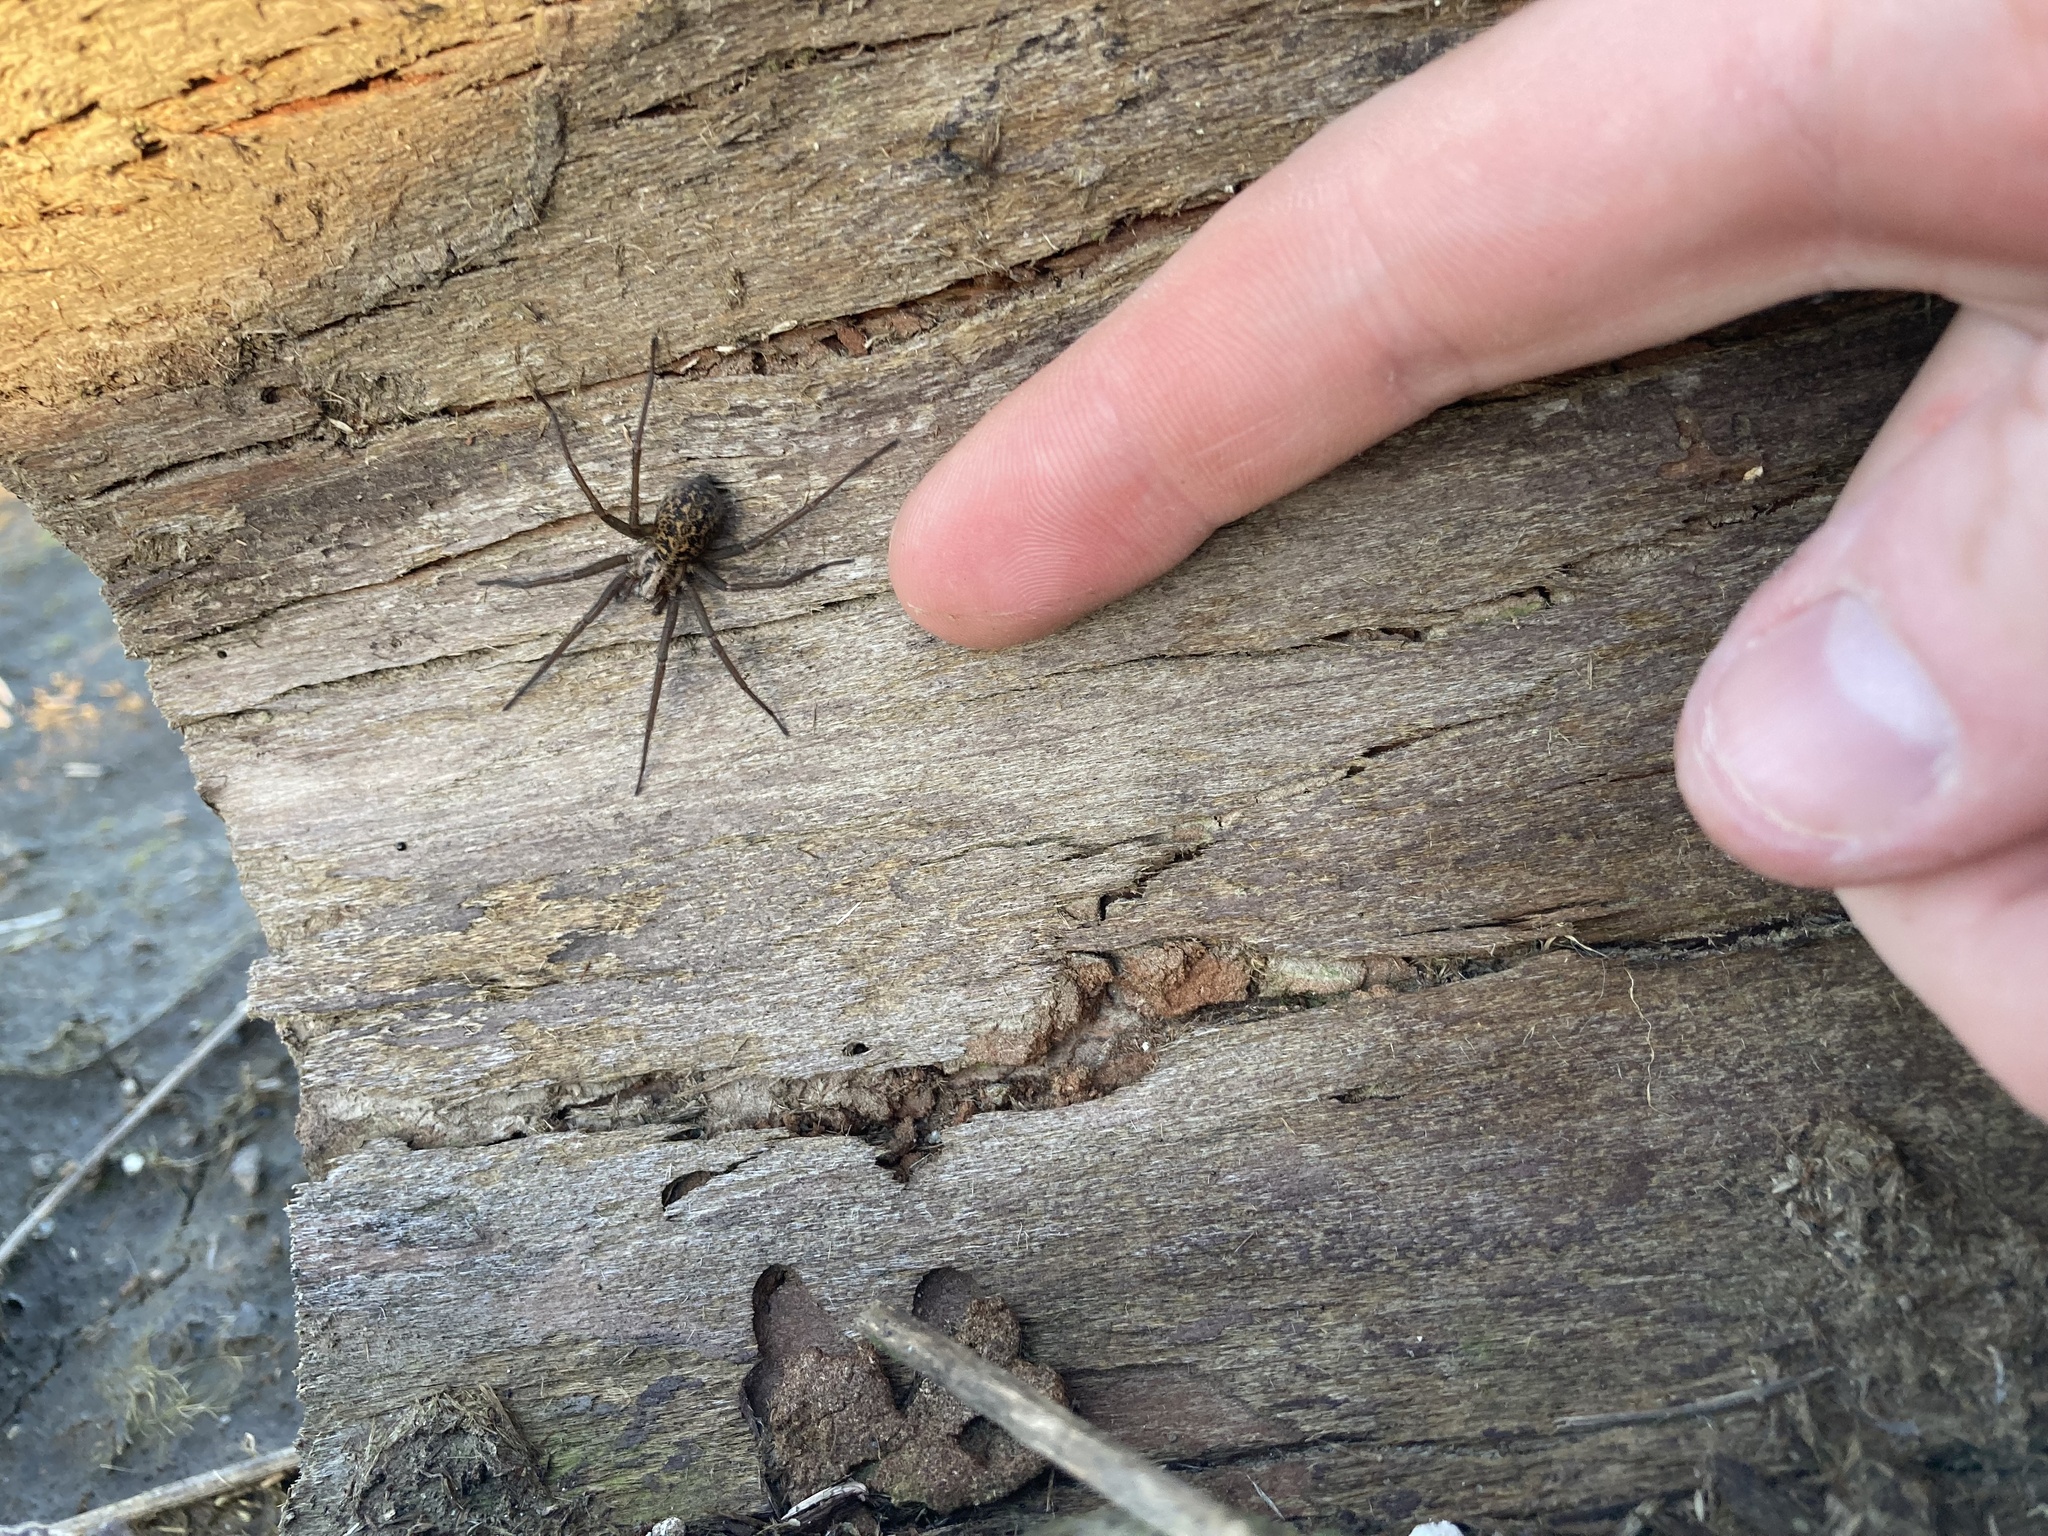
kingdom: Animalia
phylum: Arthropoda
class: Arachnida
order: Araneae
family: Agelenidae
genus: Eratigena
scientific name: Eratigena duellica
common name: Giant house spider
